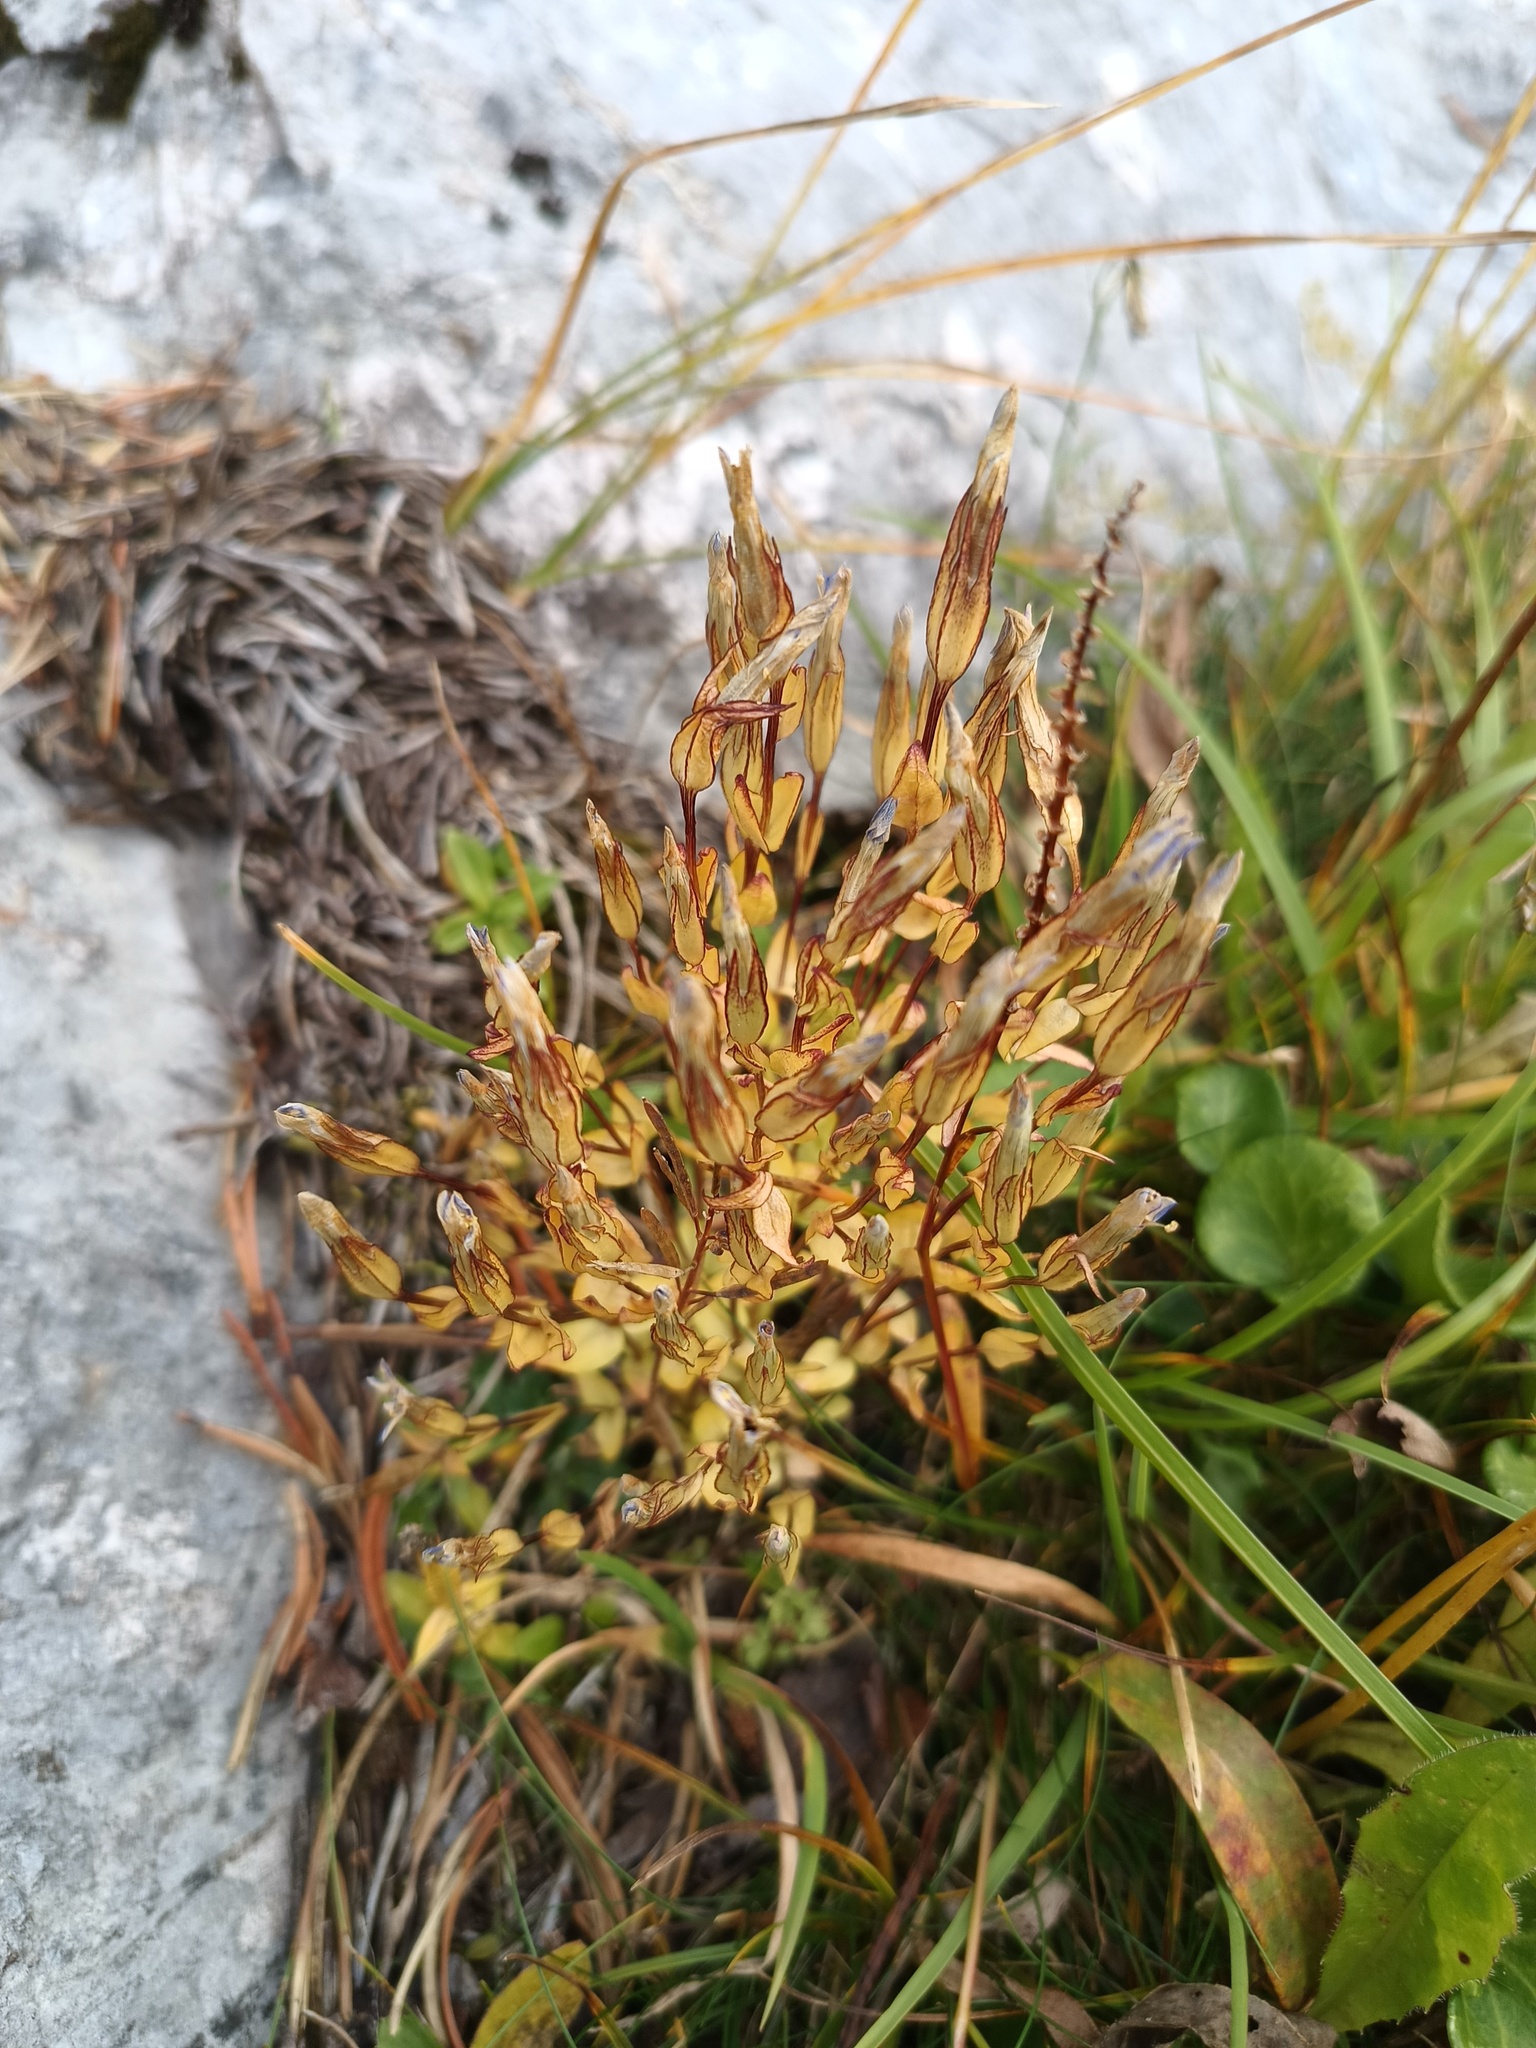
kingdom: Plantae
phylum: Tracheophyta
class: Magnoliopsida
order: Gentianales
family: Gentianaceae
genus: Gentiana
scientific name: Gentiana nivalis
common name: Alpine gentian
